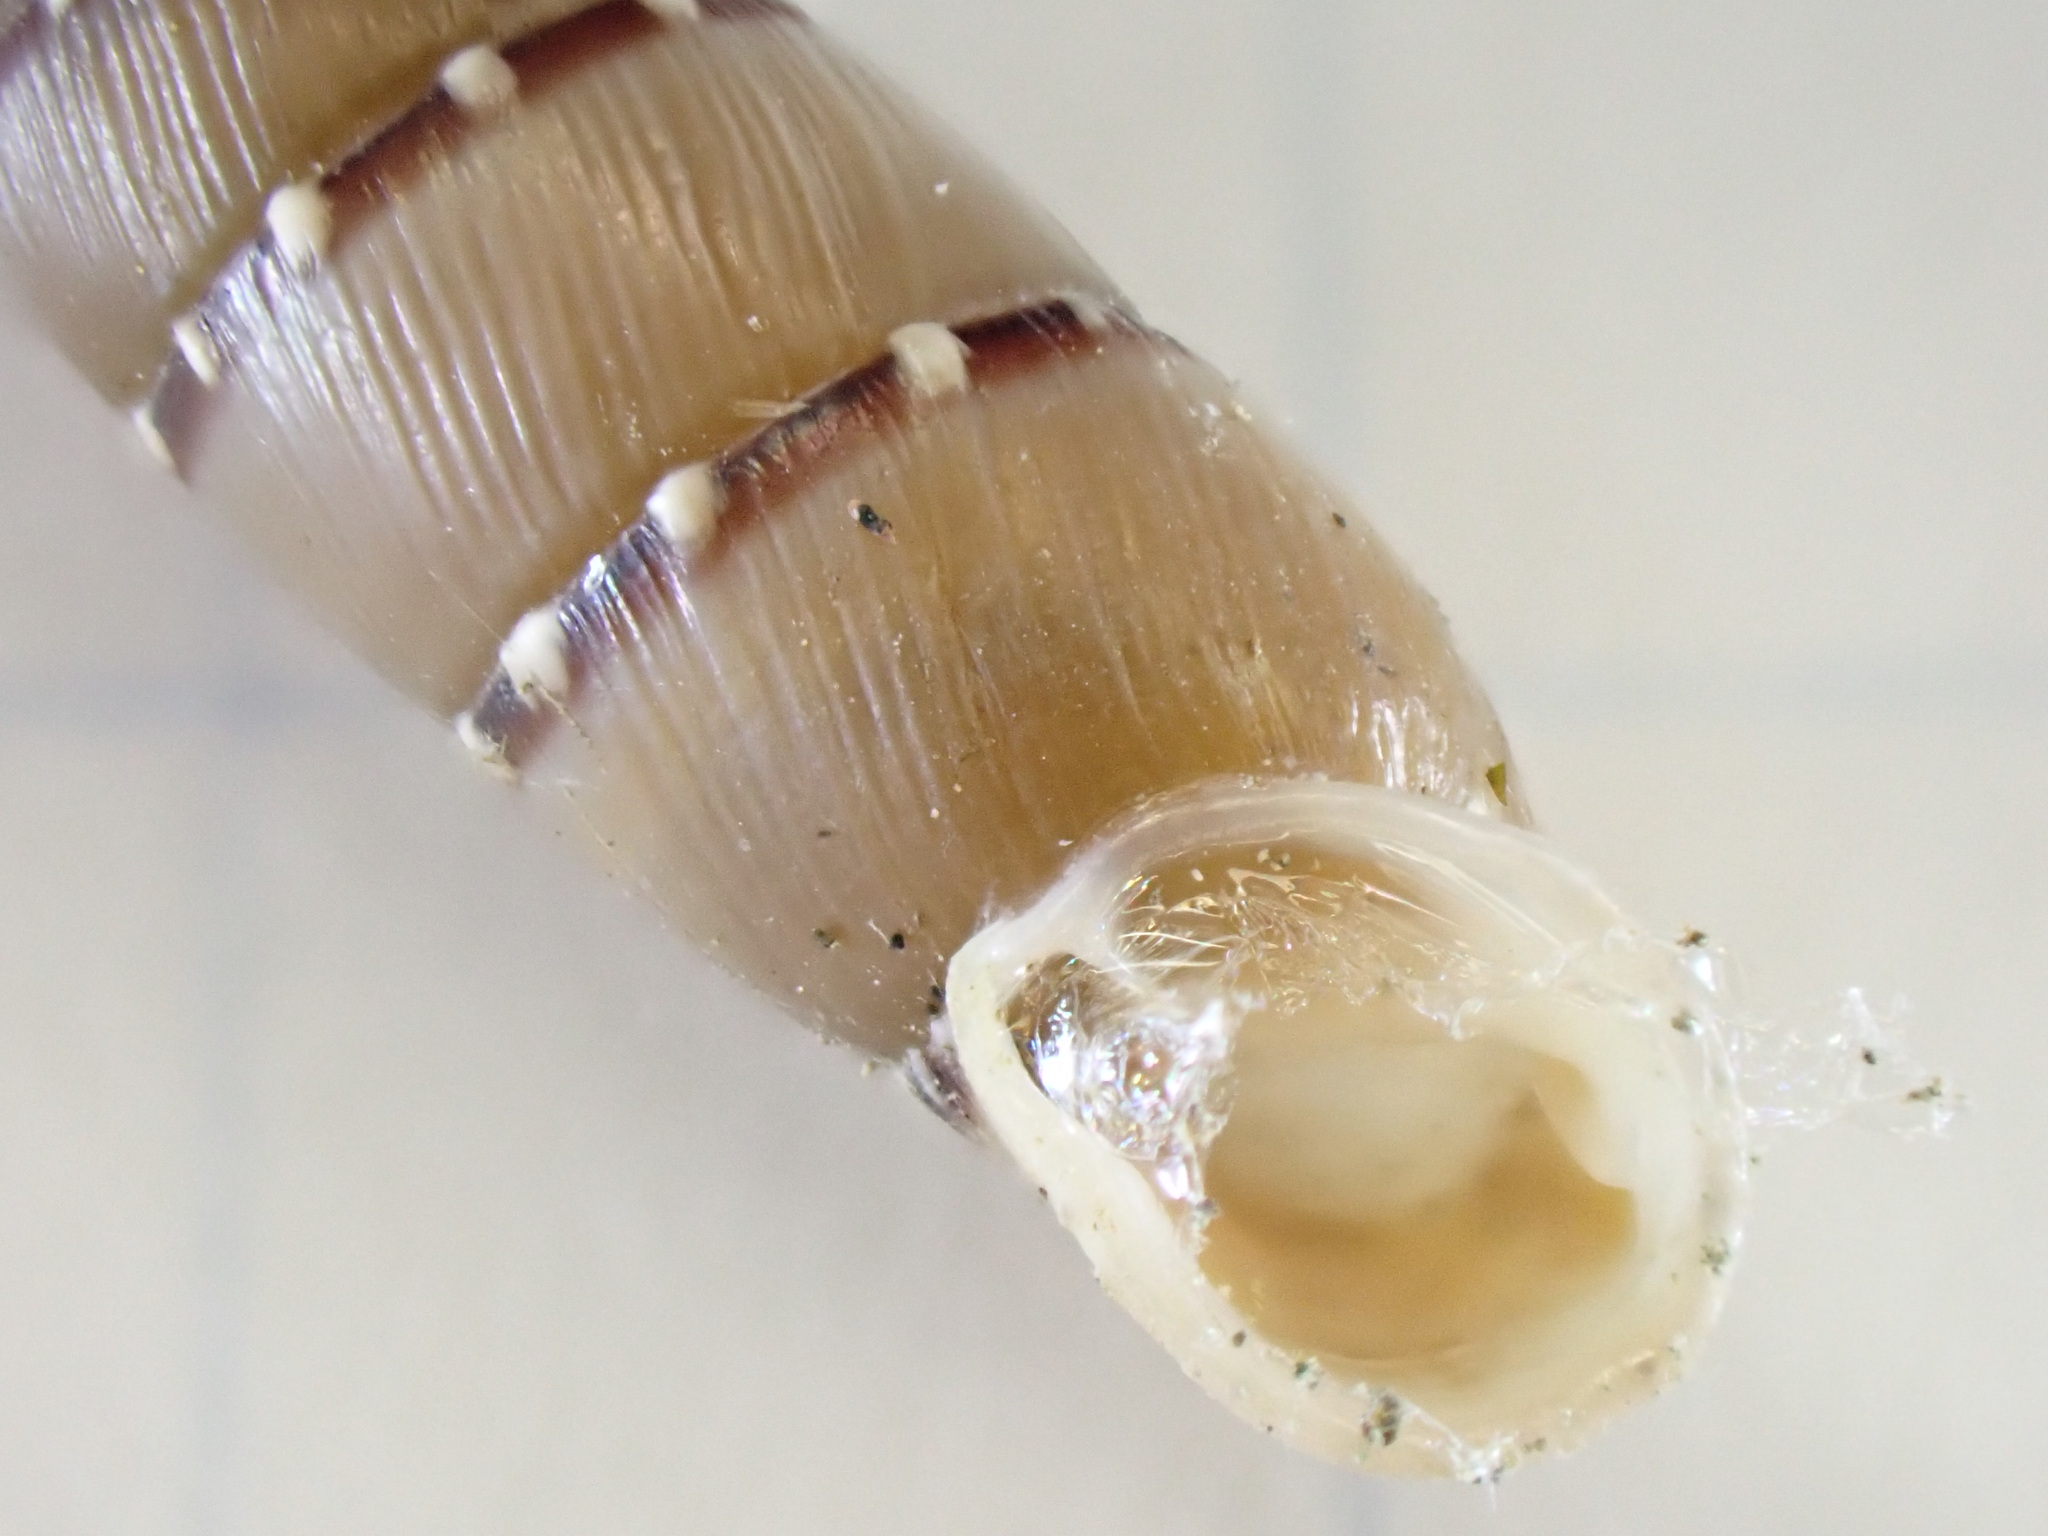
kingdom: Animalia
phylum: Mollusca
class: Gastropoda
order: Stylommatophora
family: Clausiliidae
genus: Papillifera
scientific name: Papillifera papillaris
